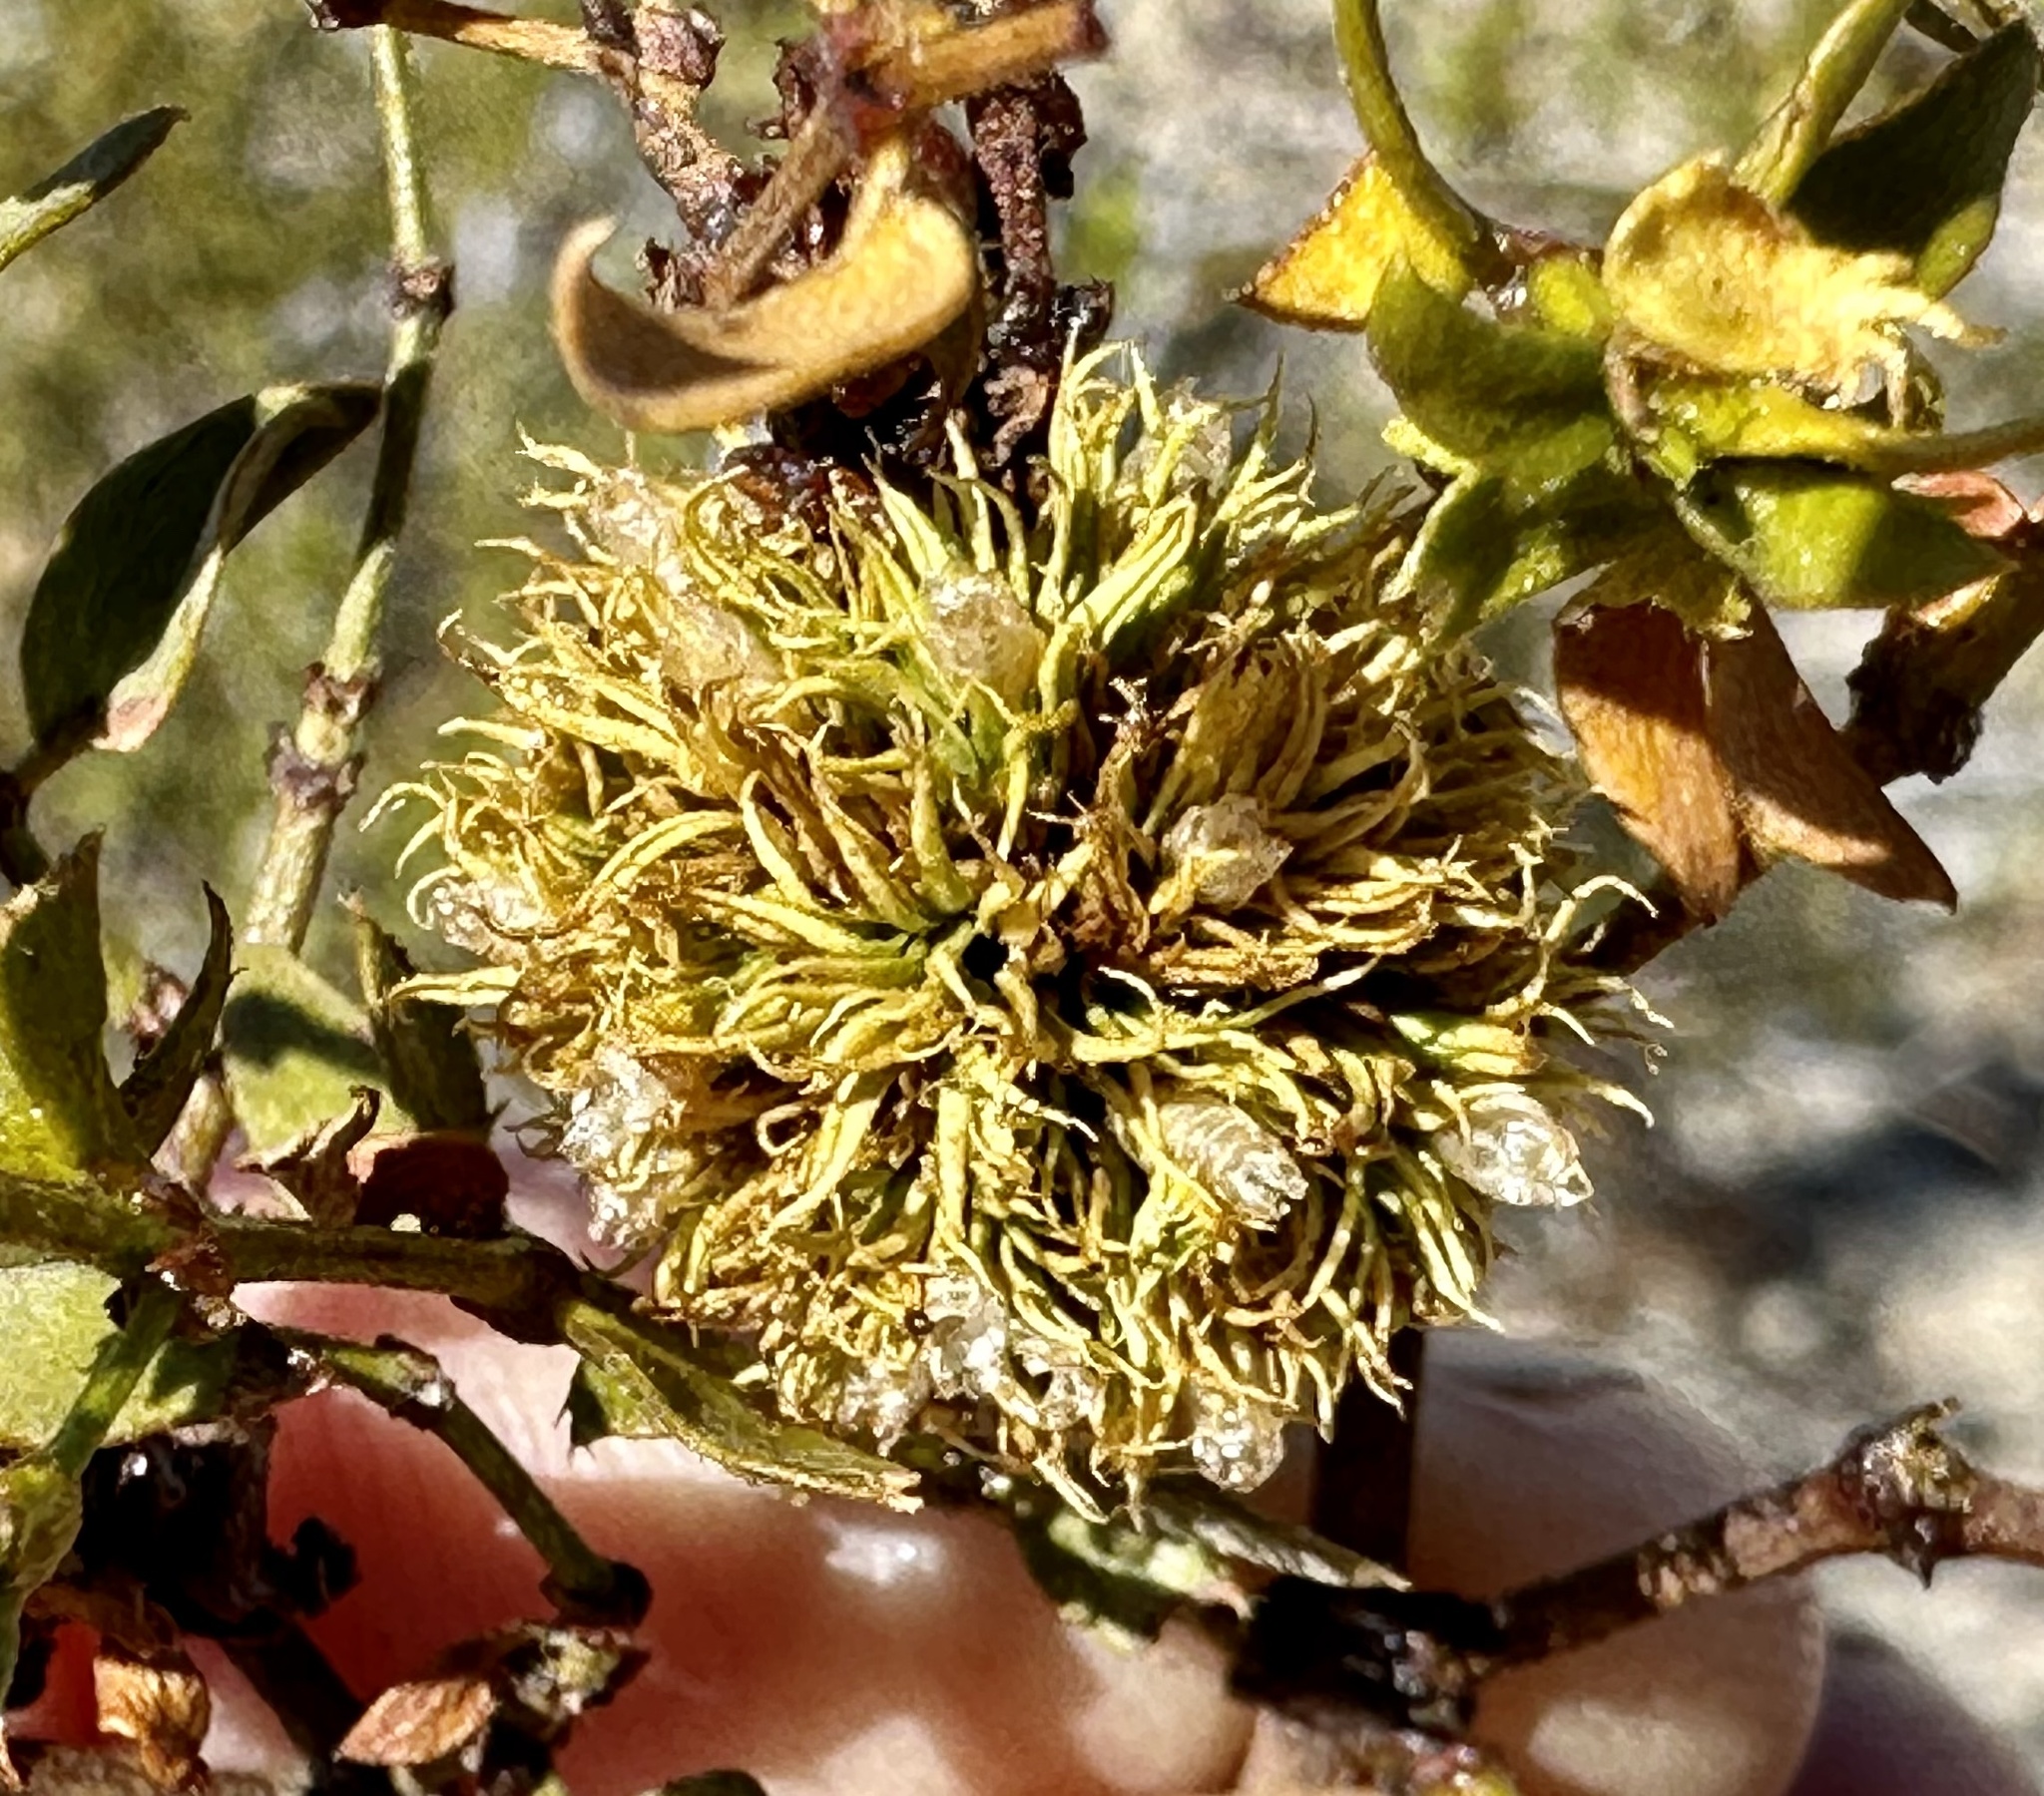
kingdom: Animalia
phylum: Arthropoda
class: Insecta
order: Diptera
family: Cecidomyiidae
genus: Asphondylia
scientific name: Asphondylia auripila
